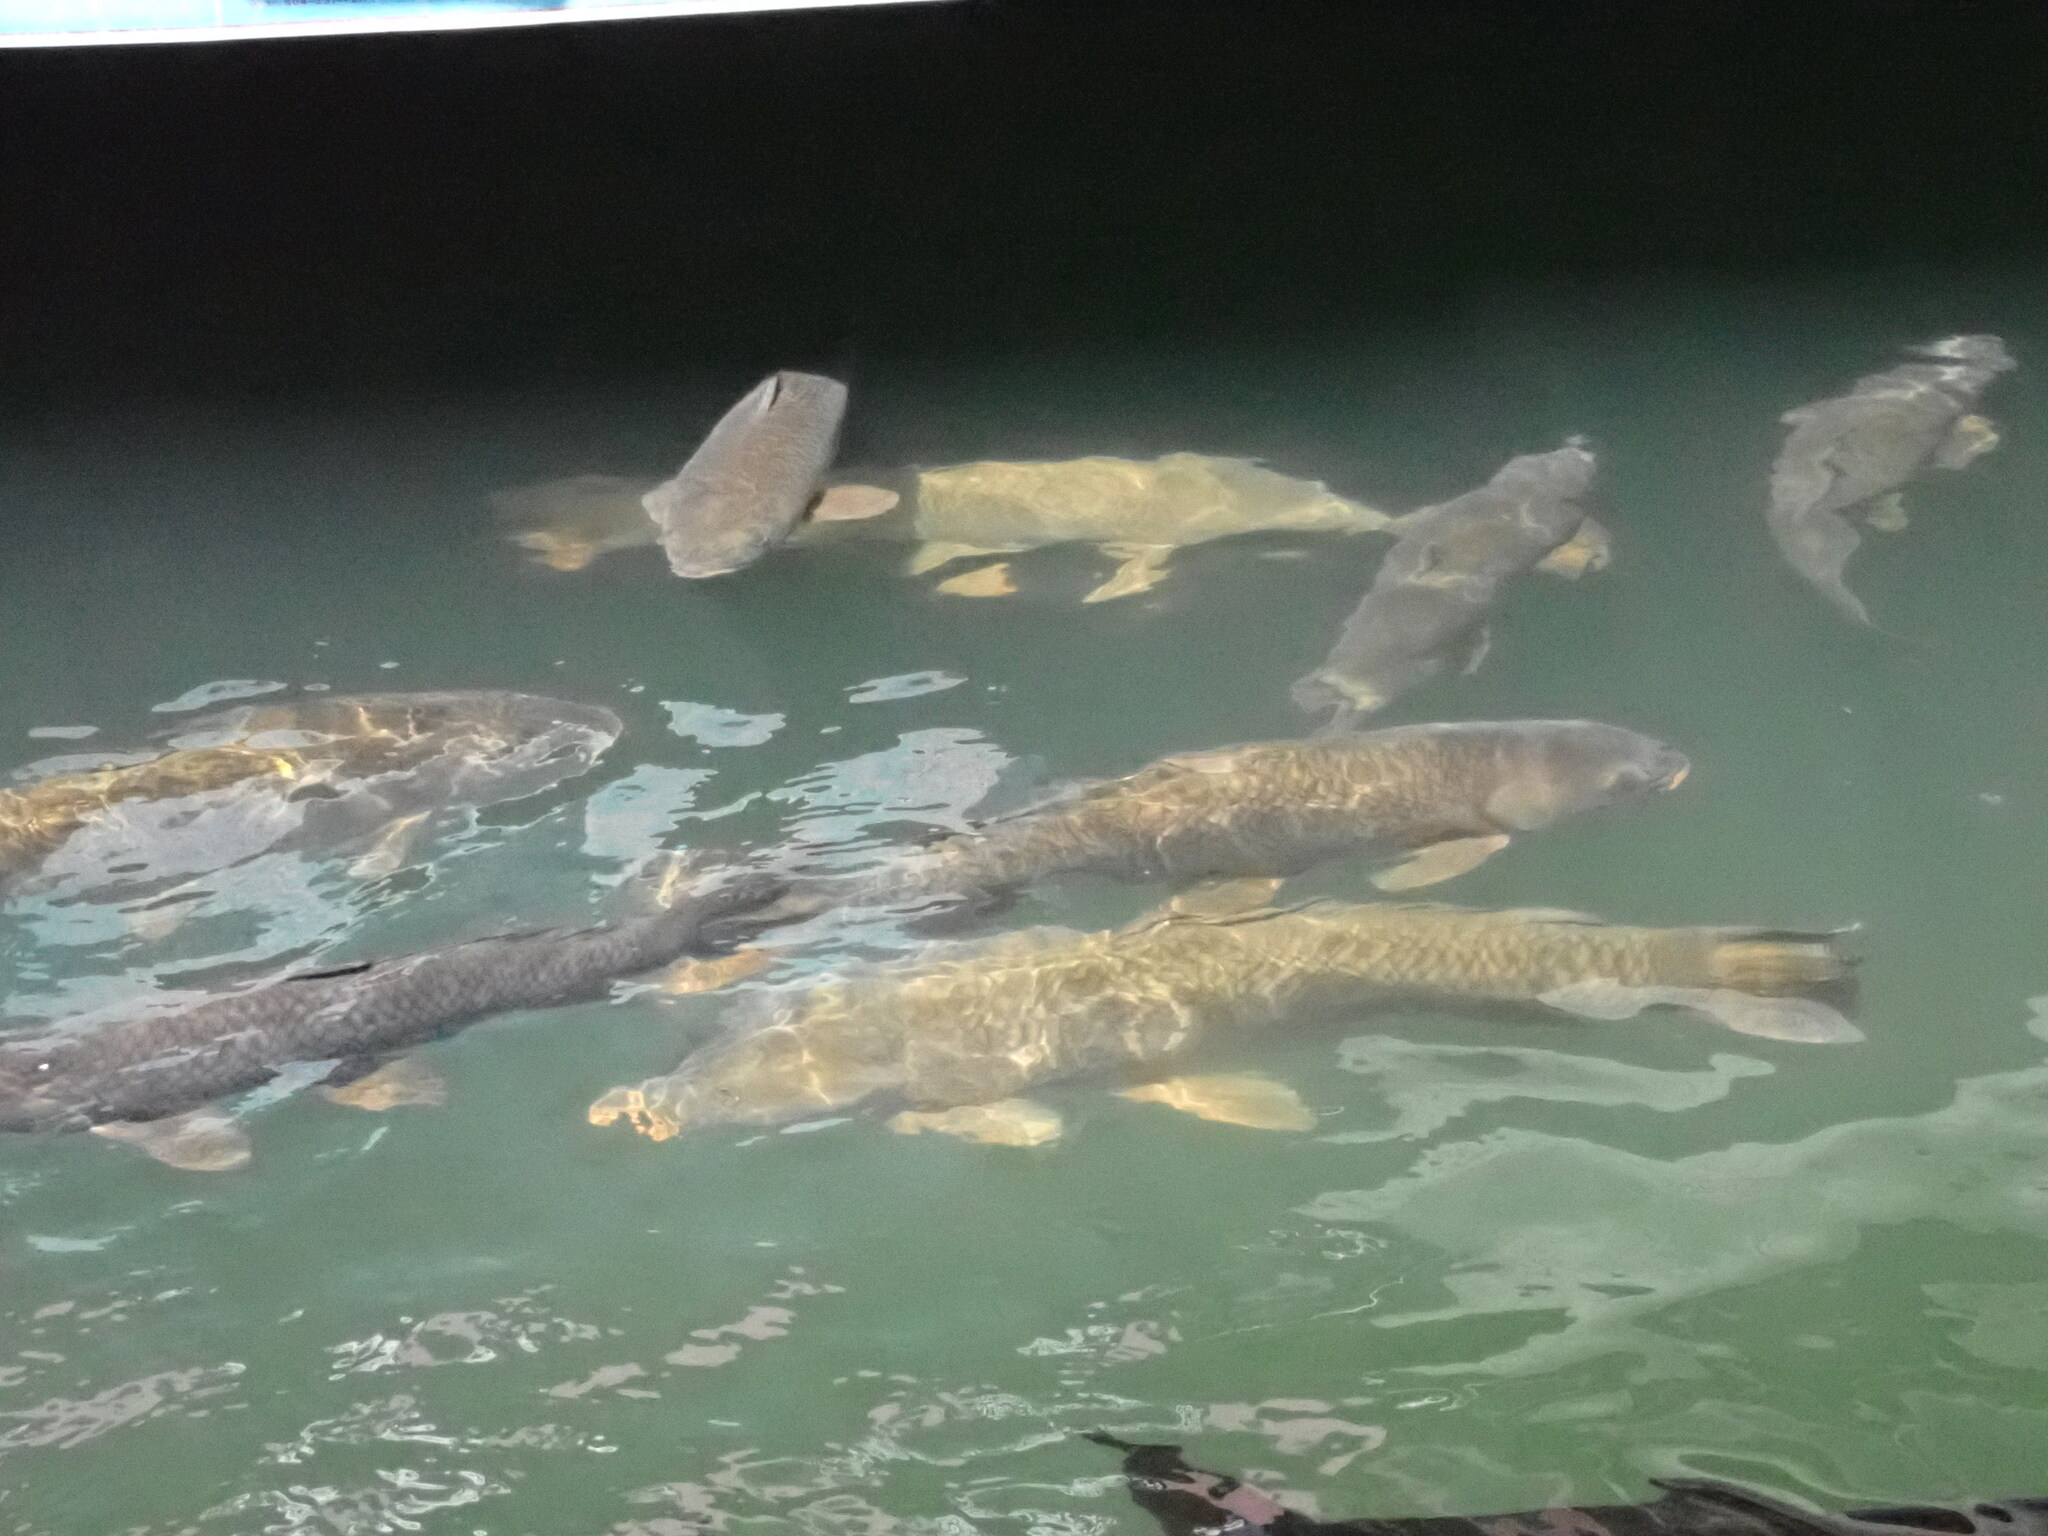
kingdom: Animalia
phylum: Chordata
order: Cypriniformes
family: Cyprinidae
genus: Cyprinus
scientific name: Cyprinus carpio
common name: Common carp
